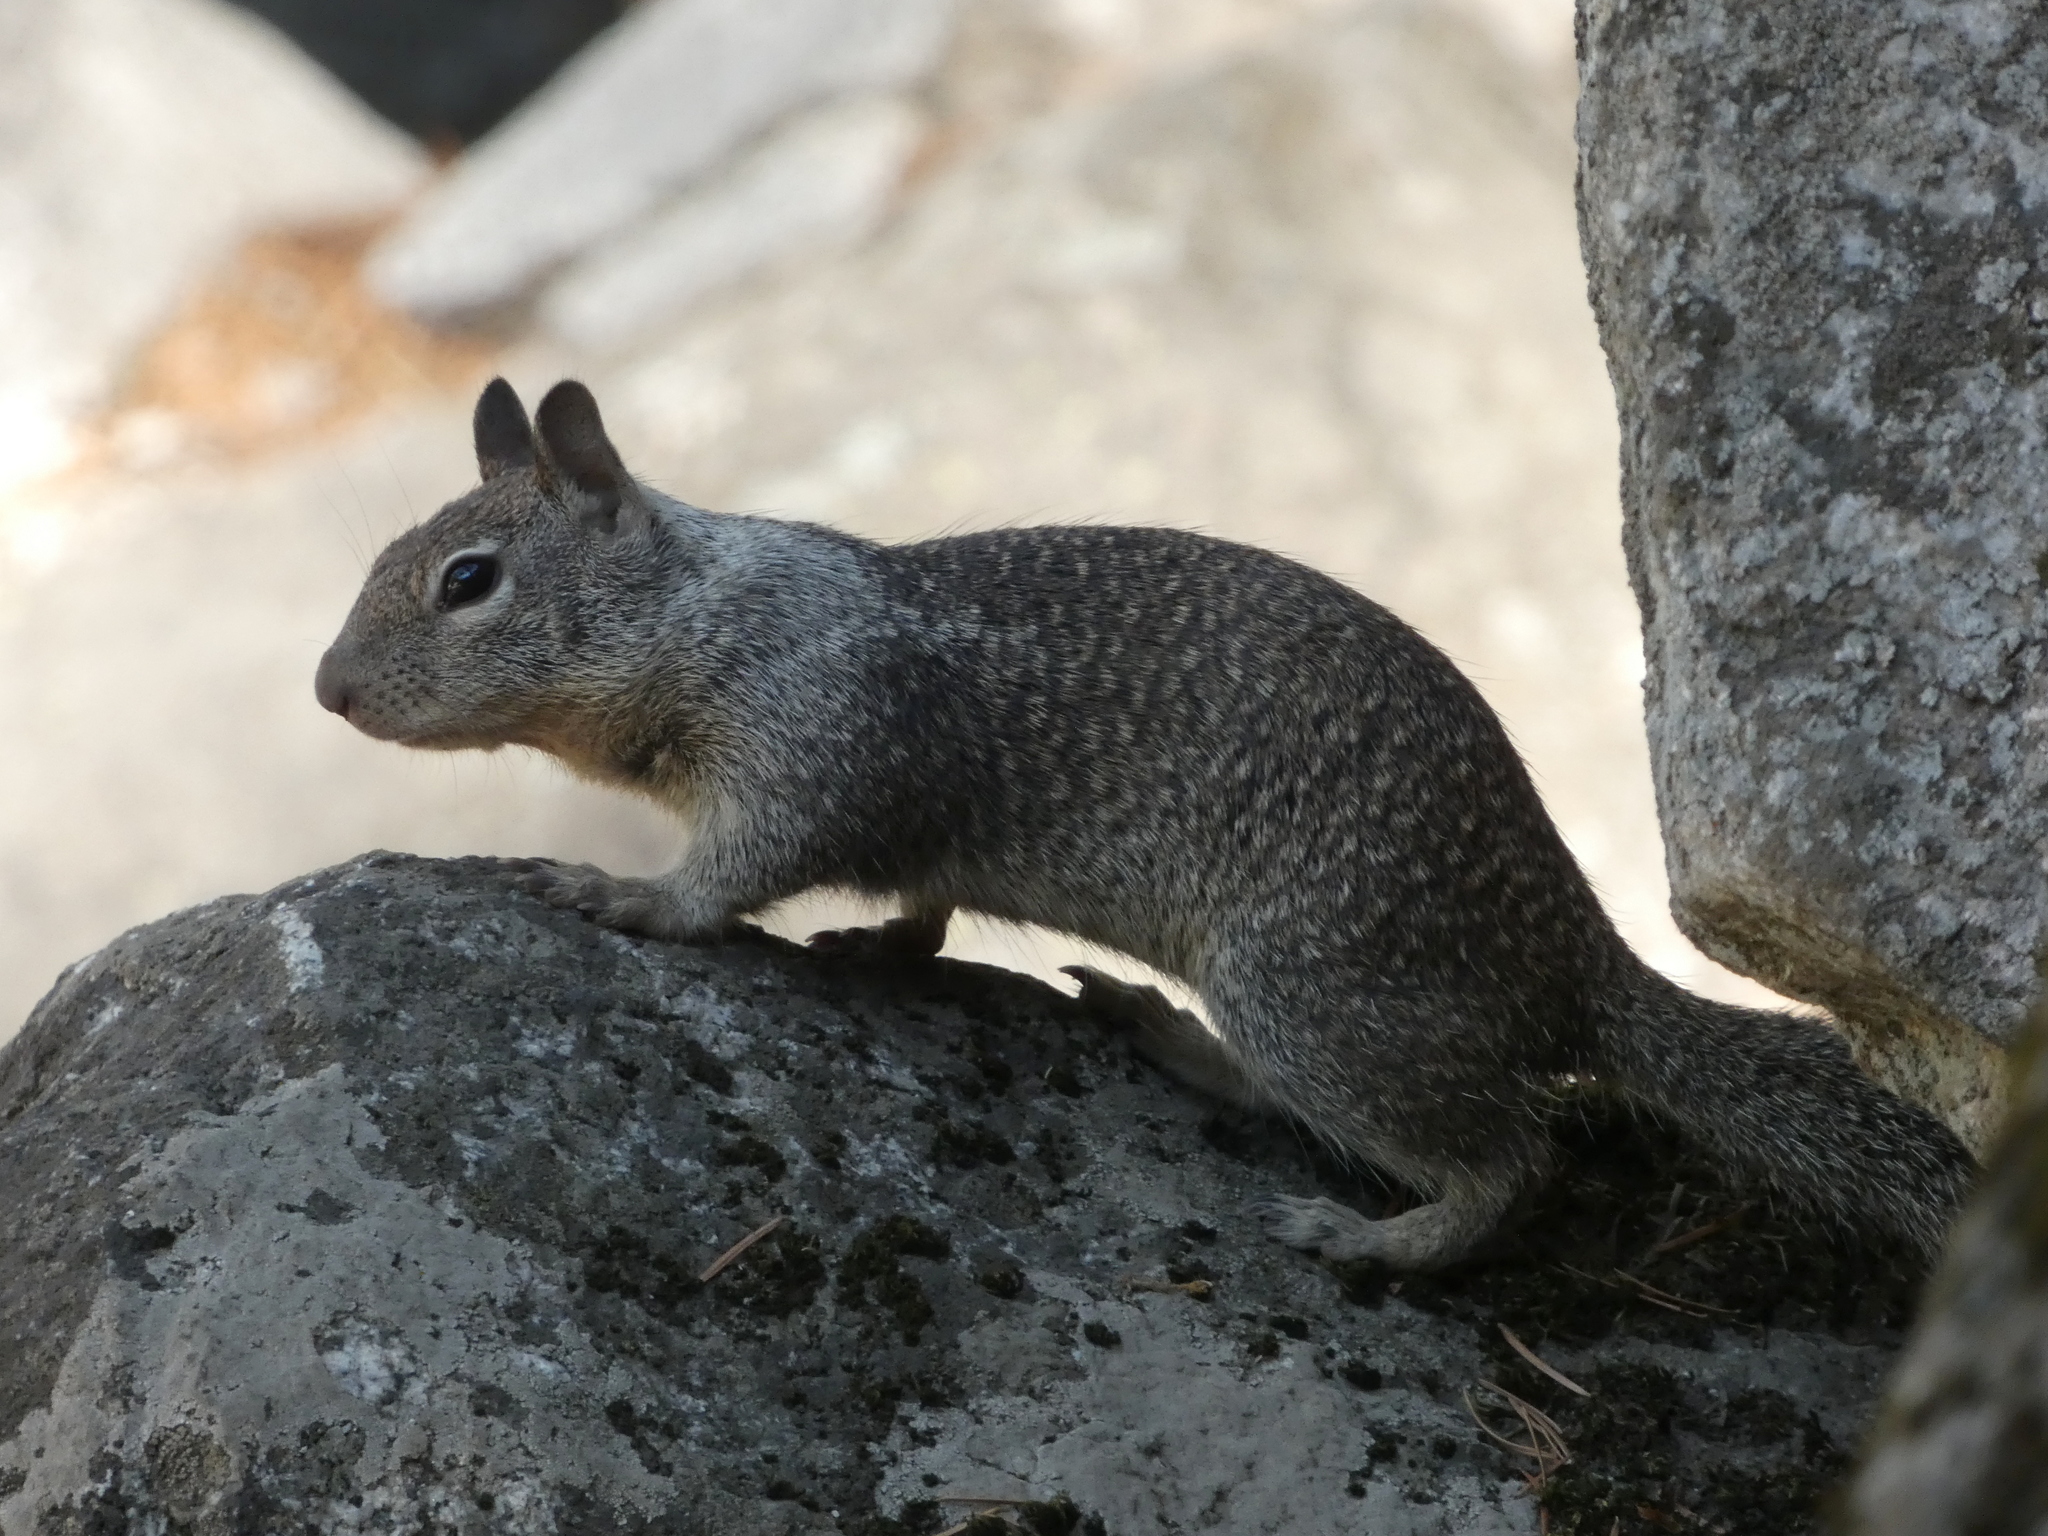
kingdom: Animalia
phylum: Chordata
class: Mammalia
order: Rodentia
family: Sciuridae
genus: Otospermophilus
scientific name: Otospermophilus beecheyi
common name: California ground squirrel
